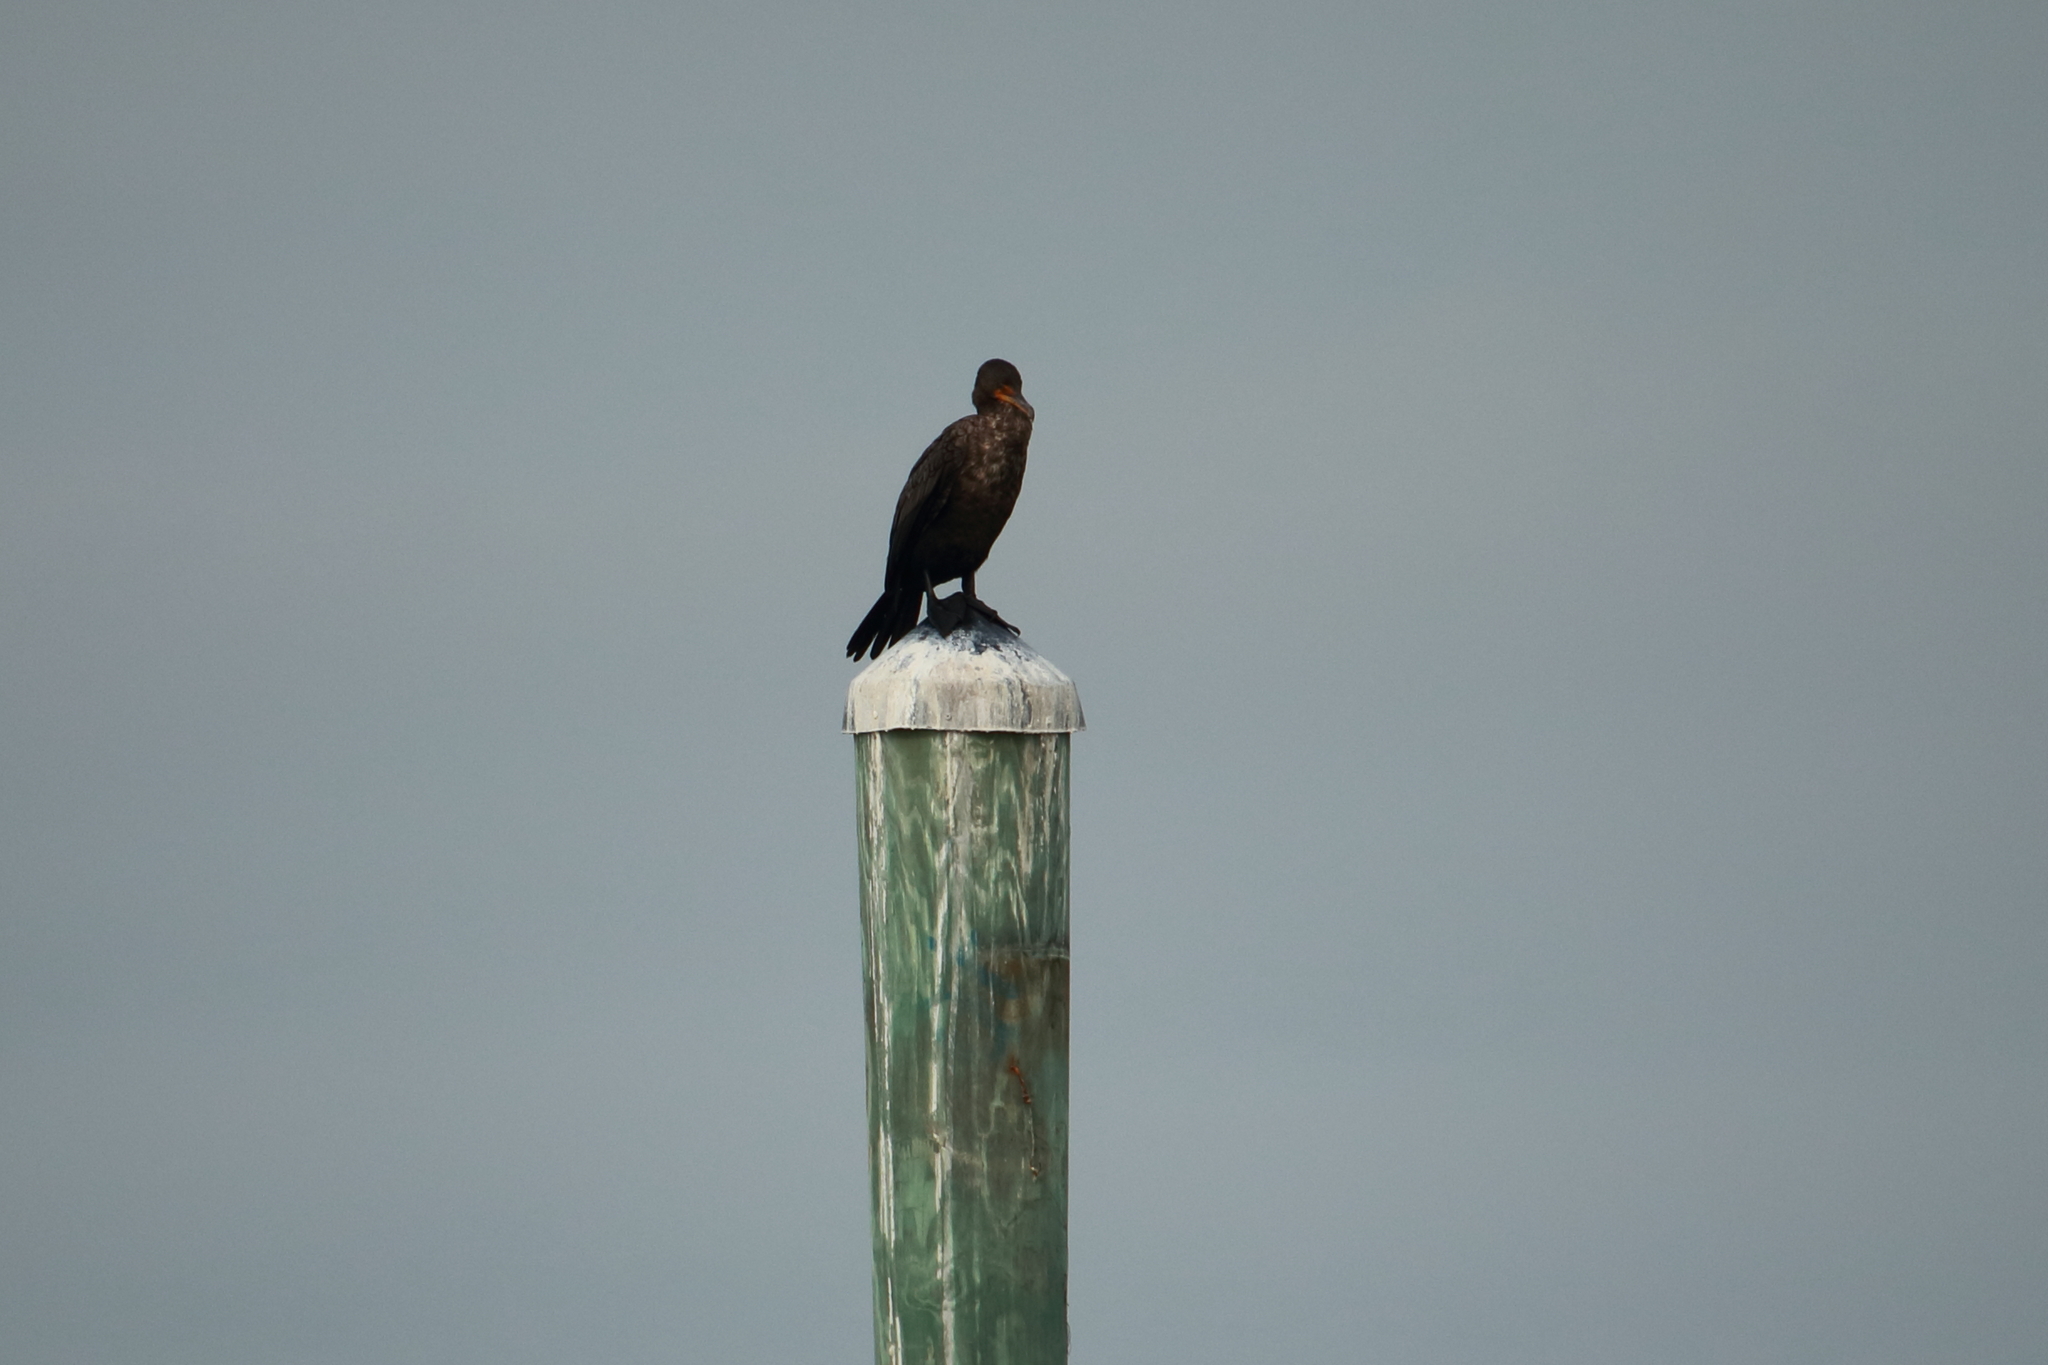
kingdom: Animalia
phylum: Chordata
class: Aves
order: Suliformes
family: Phalacrocoracidae
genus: Phalacrocorax
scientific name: Phalacrocorax auritus
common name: Double-crested cormorant
